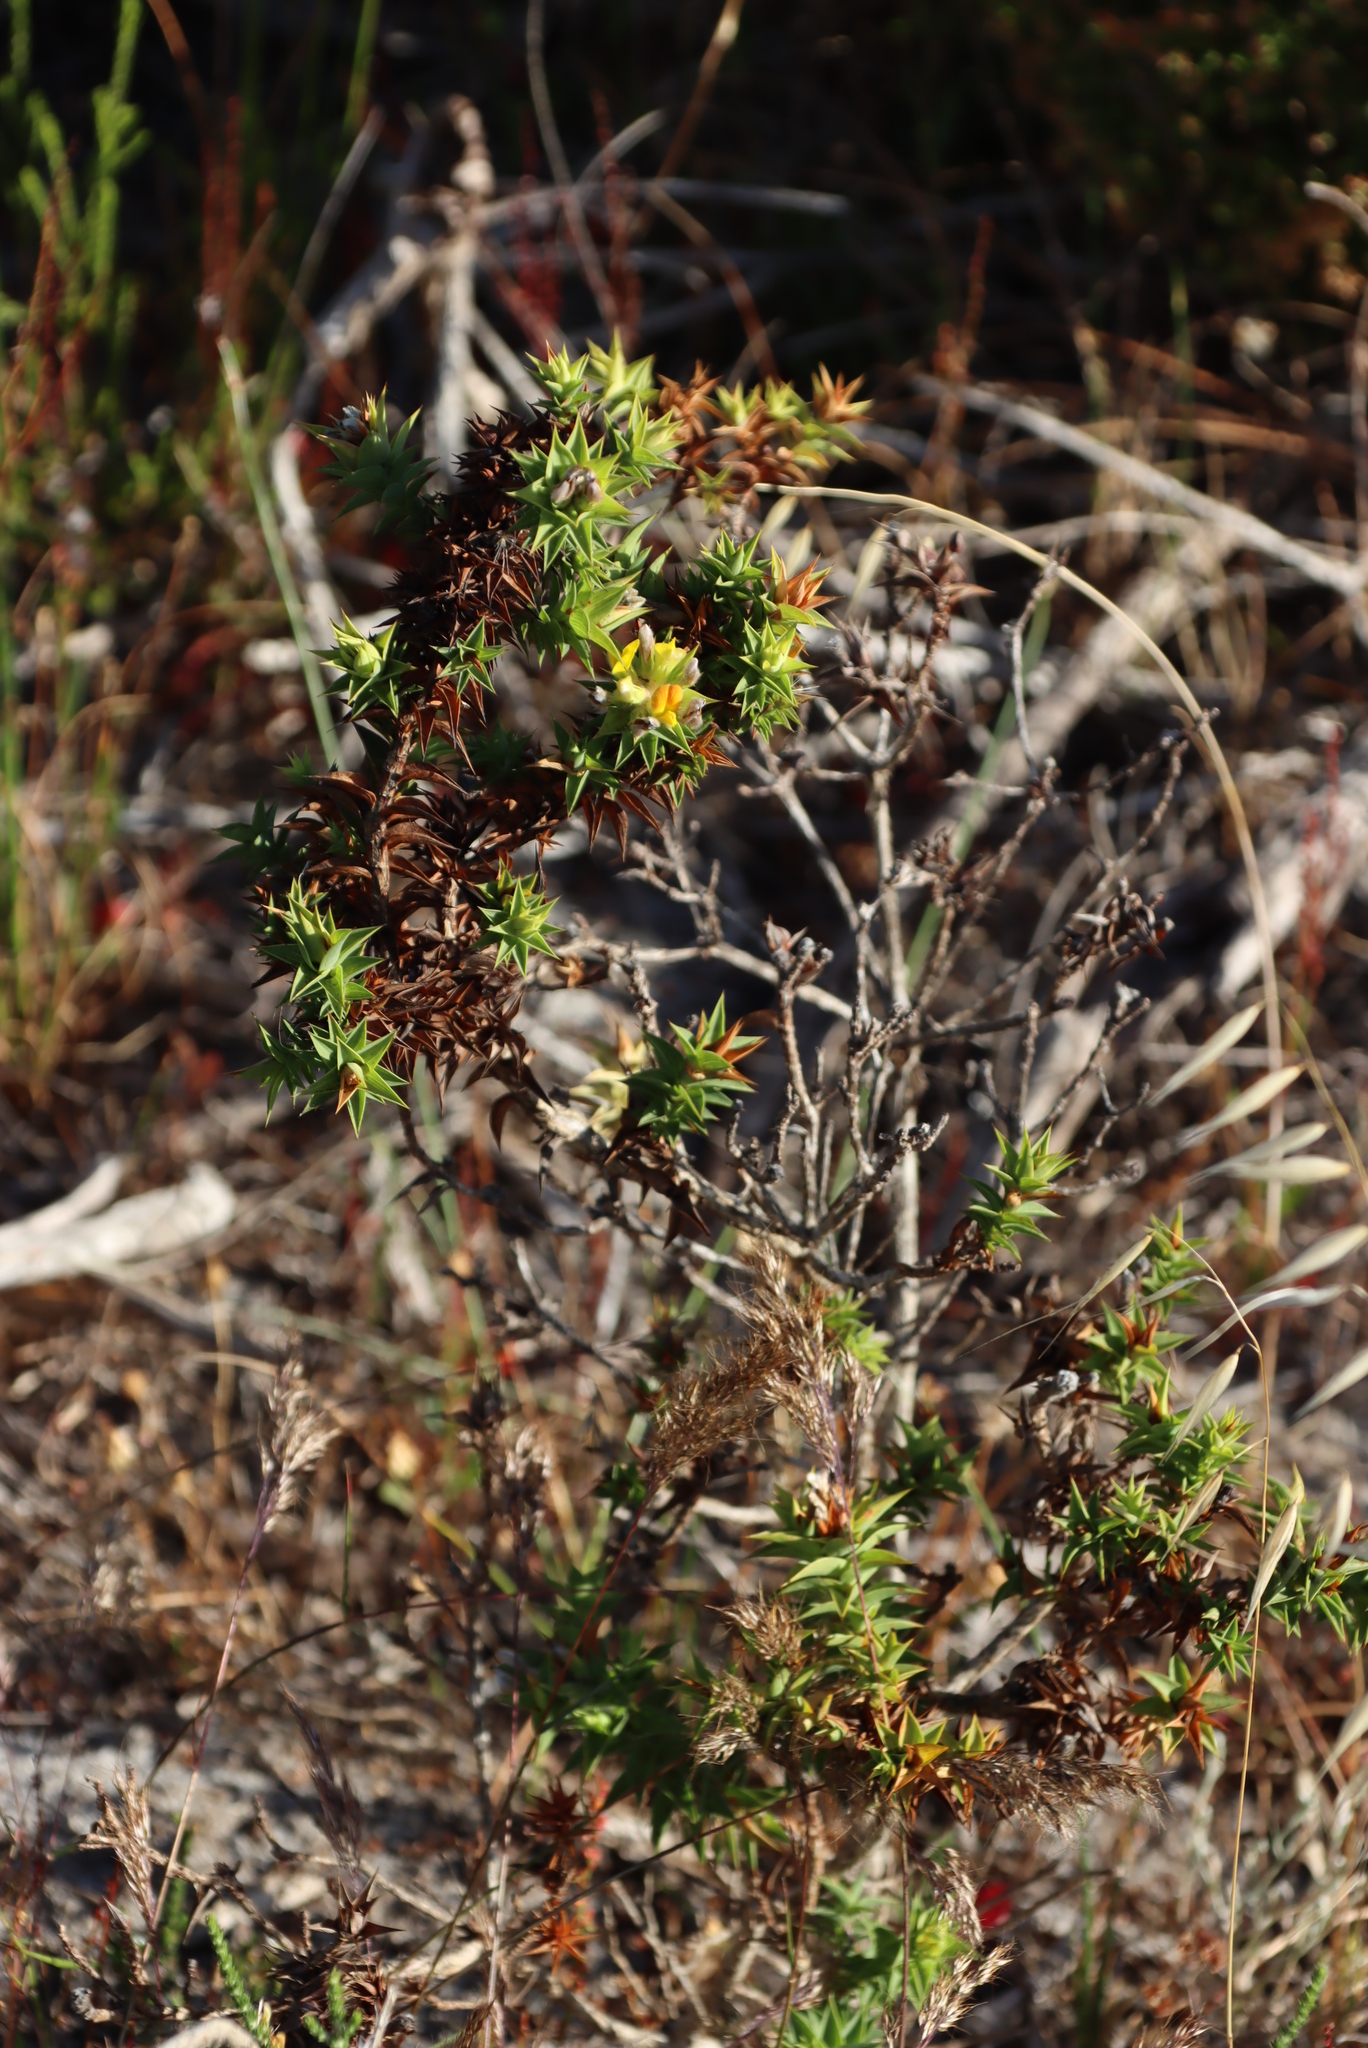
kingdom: Plantae
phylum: Tracheophyta
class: Magnoliopsida
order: Fabales
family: Fabaceae
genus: Aspalathus
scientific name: Aspalathus cordata
